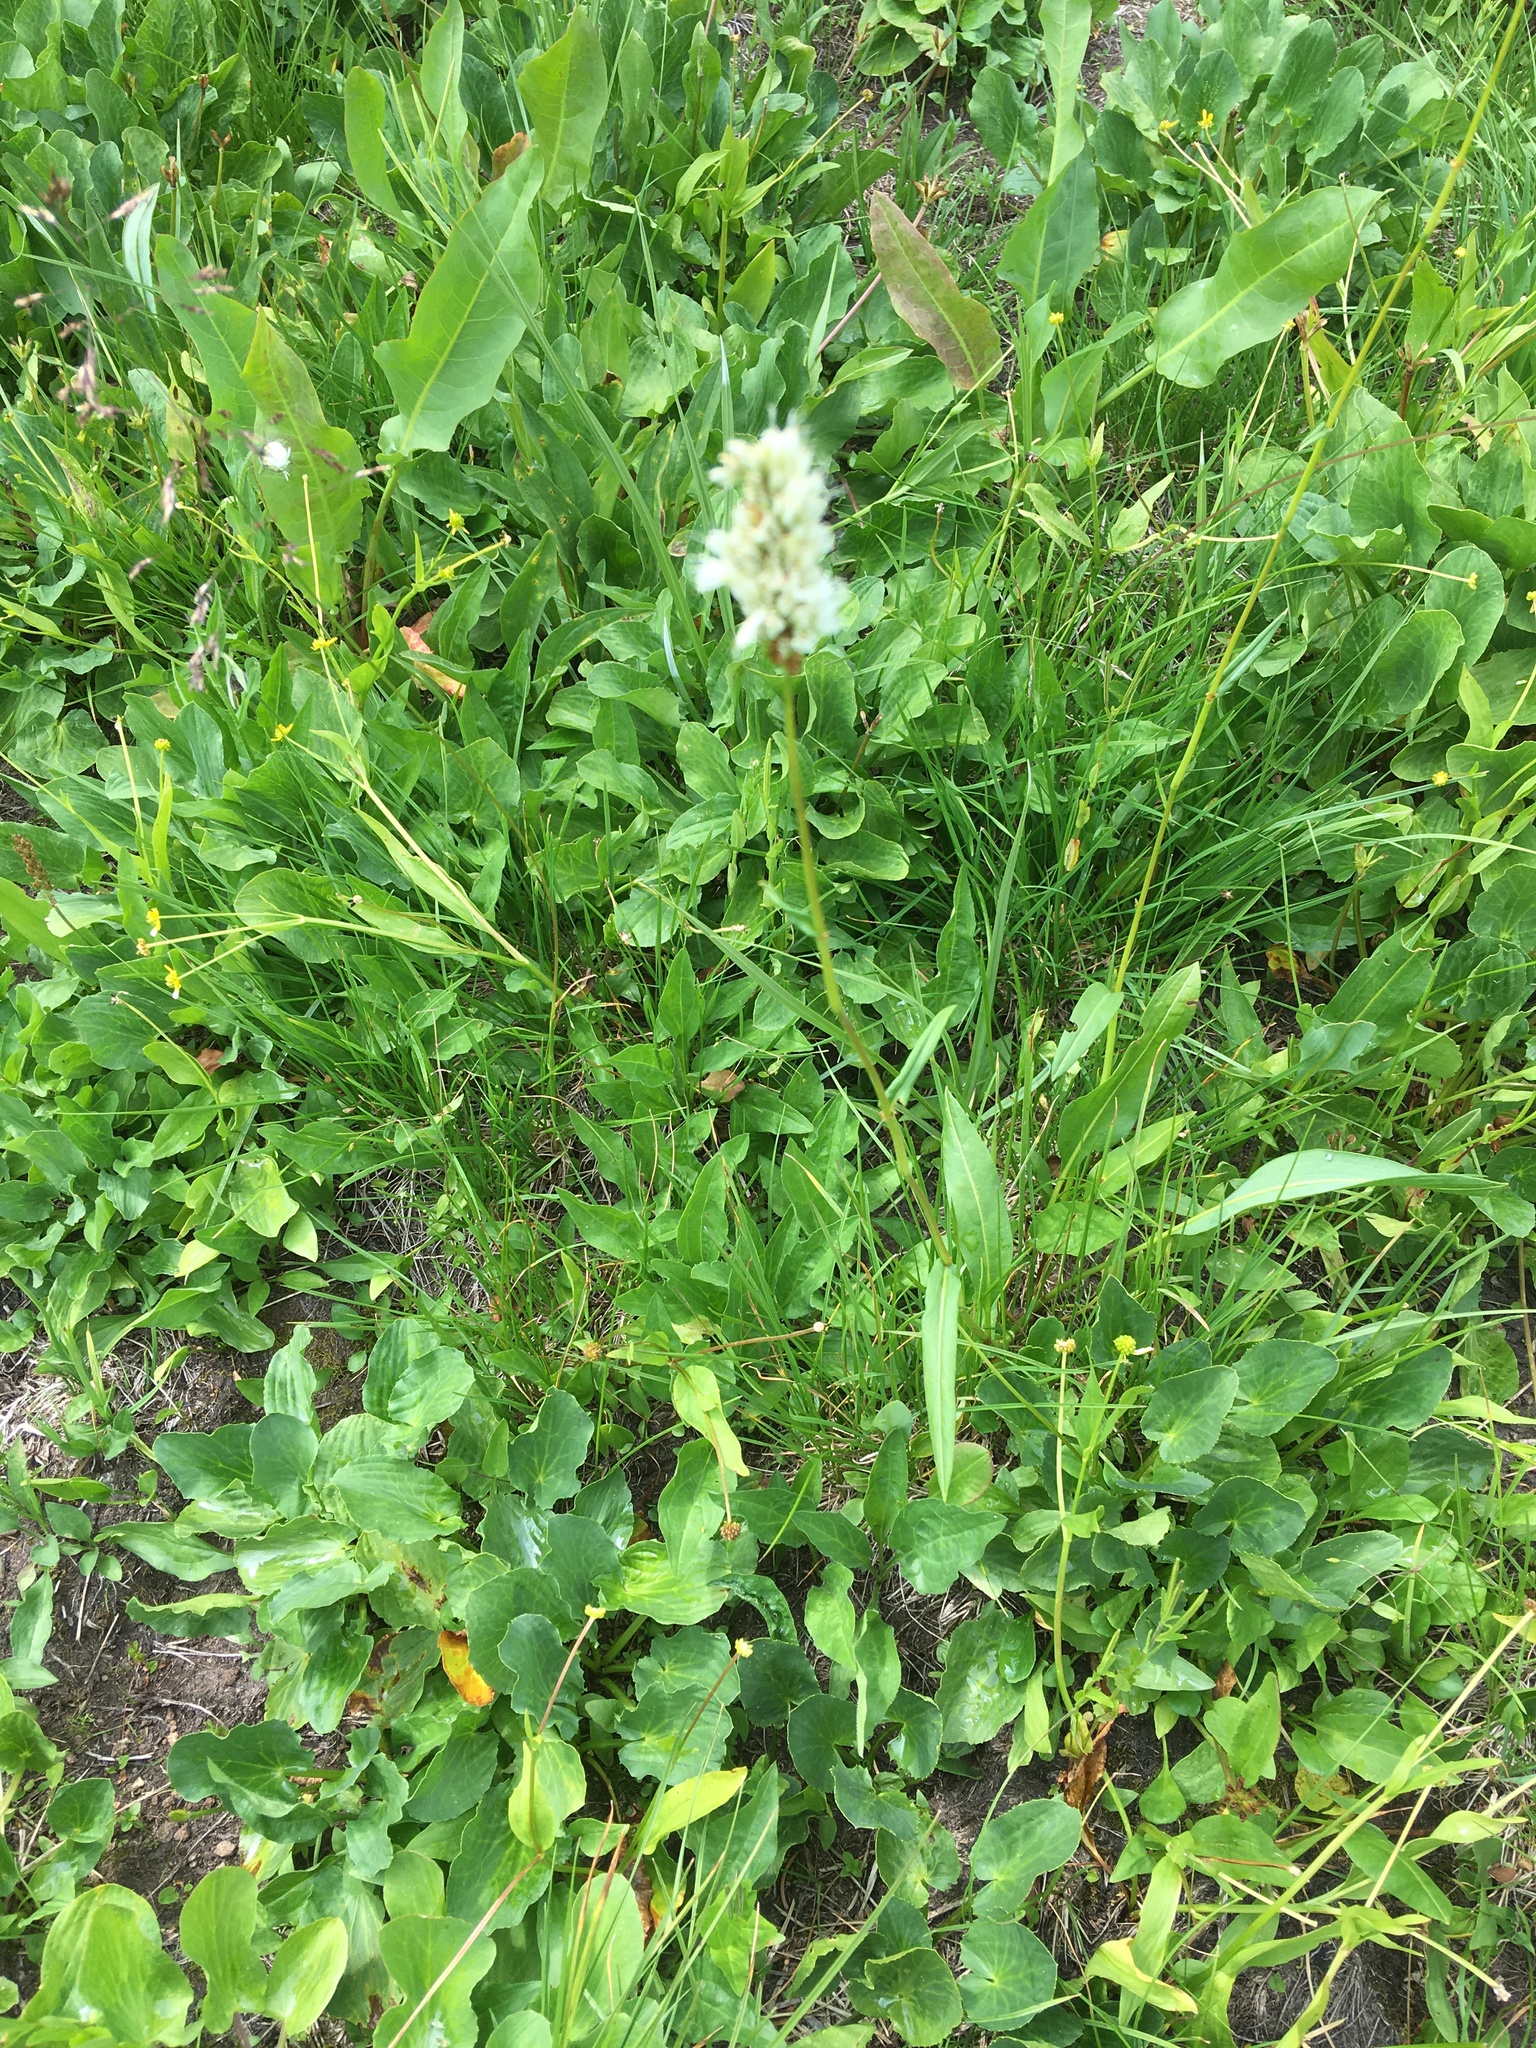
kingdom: Plantae
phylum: Tracheophyta
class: Magnoliopsida
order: Caryophyllales
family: Polygonaceae
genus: Bistorta
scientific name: Bistorta bistortoides
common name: American bistort
